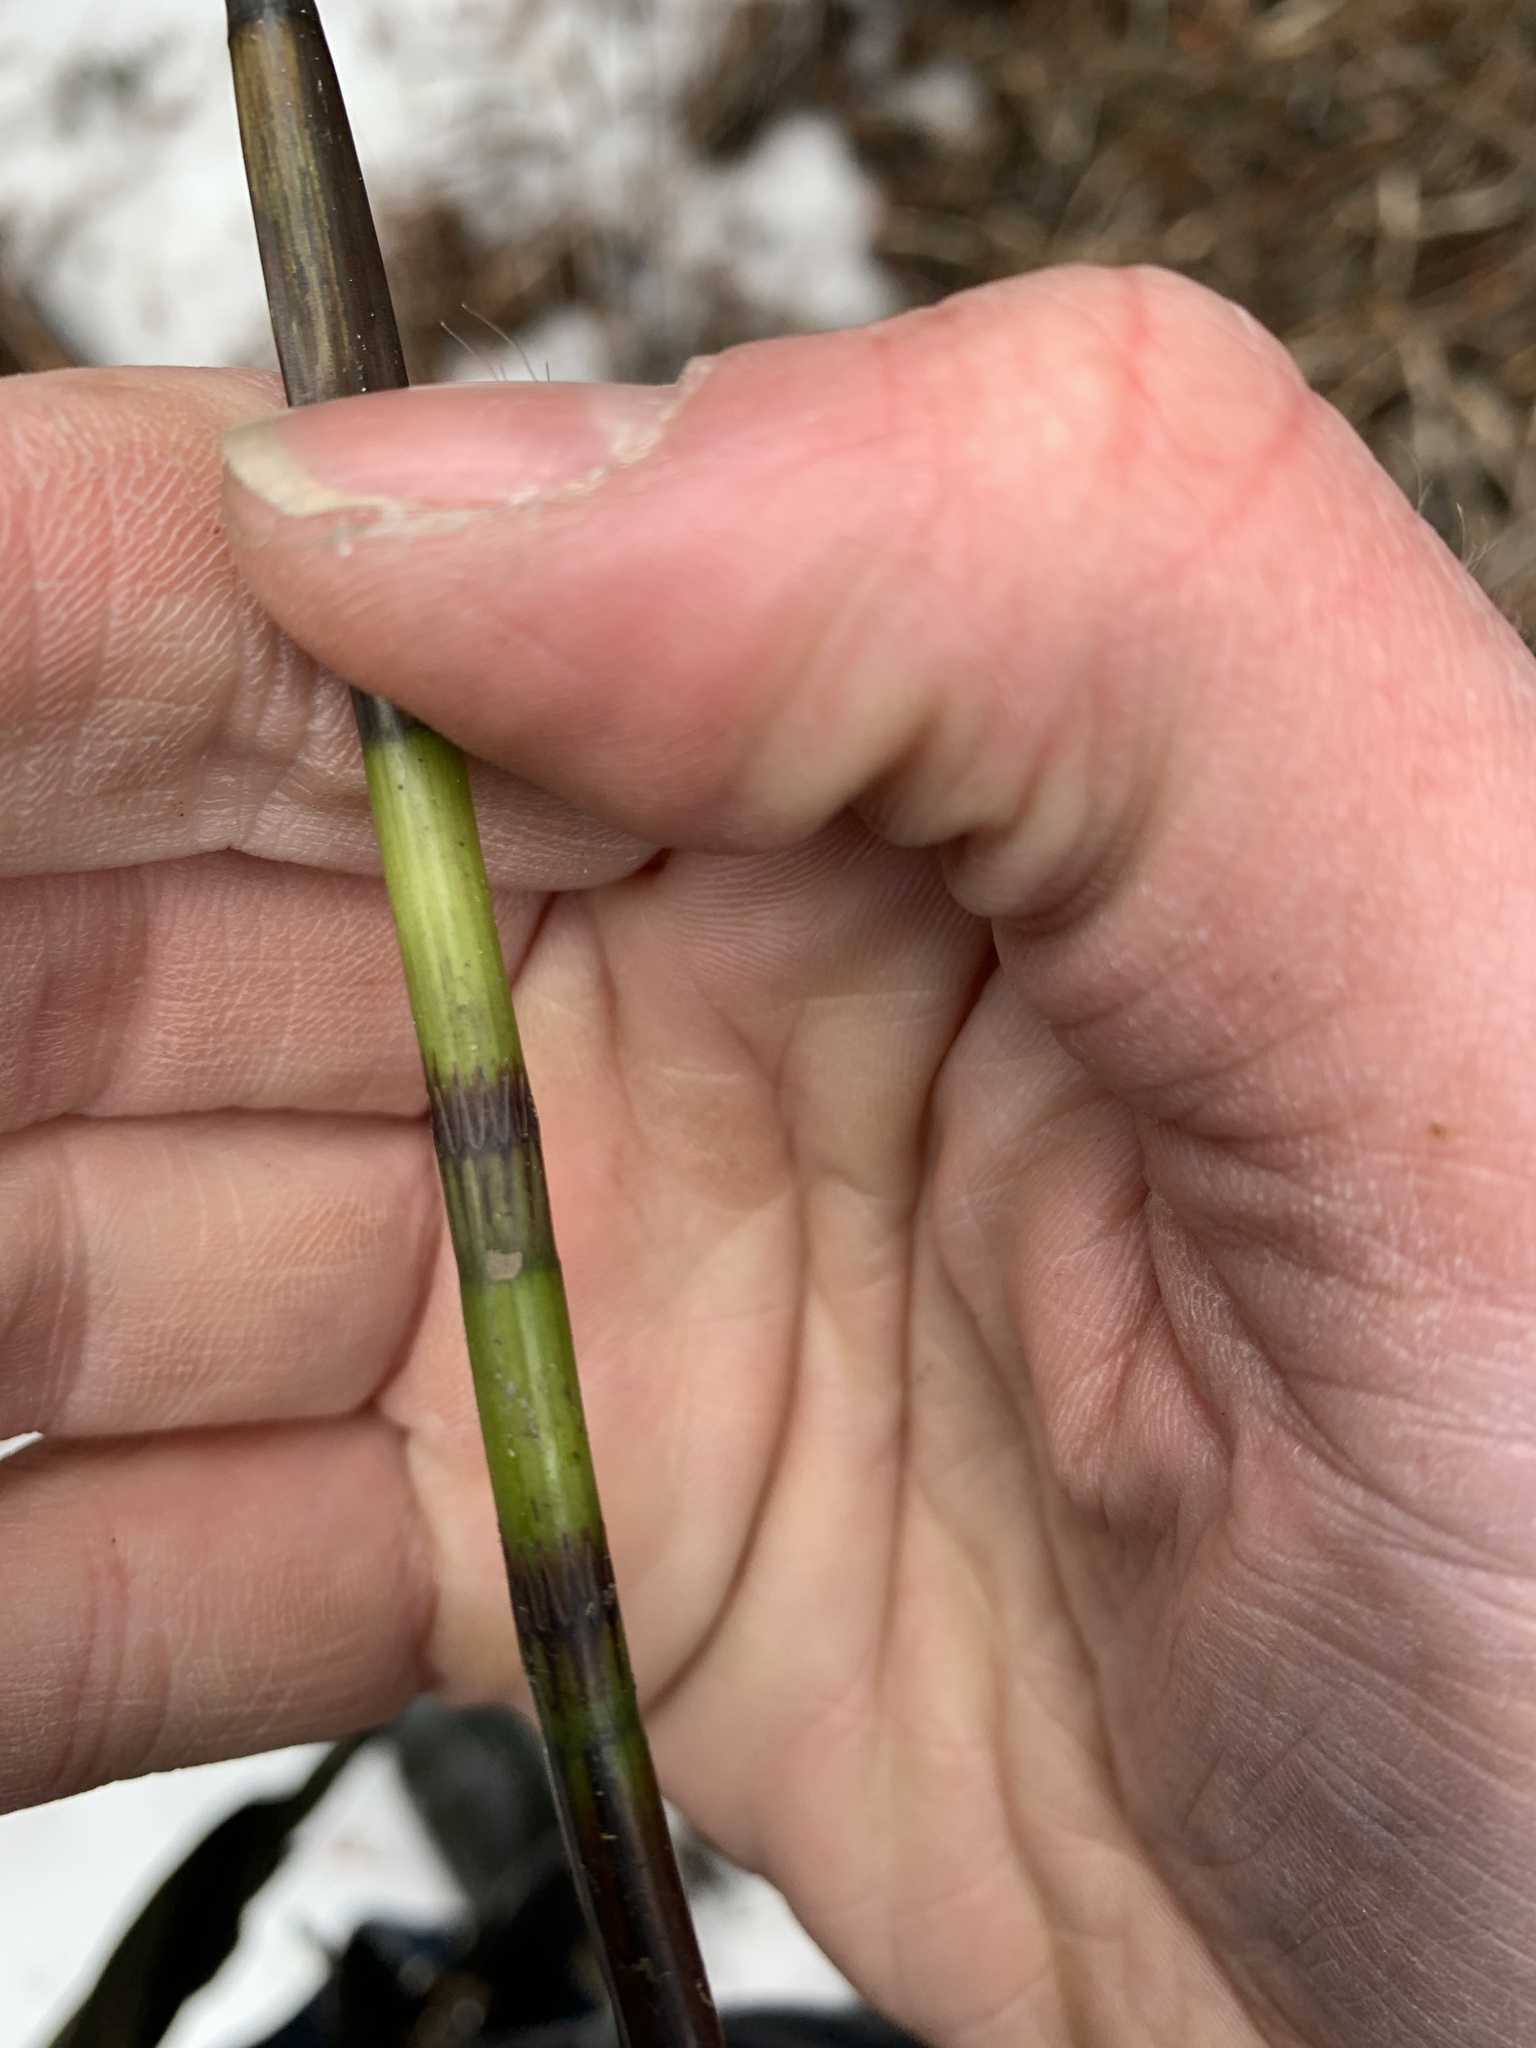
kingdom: Plantae
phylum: Tracheophyta
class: Polypodiopsida
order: Equisetales
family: Equisetaceae
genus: Equisetum
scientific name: Equisetum hyemale
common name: Rough horsetail
